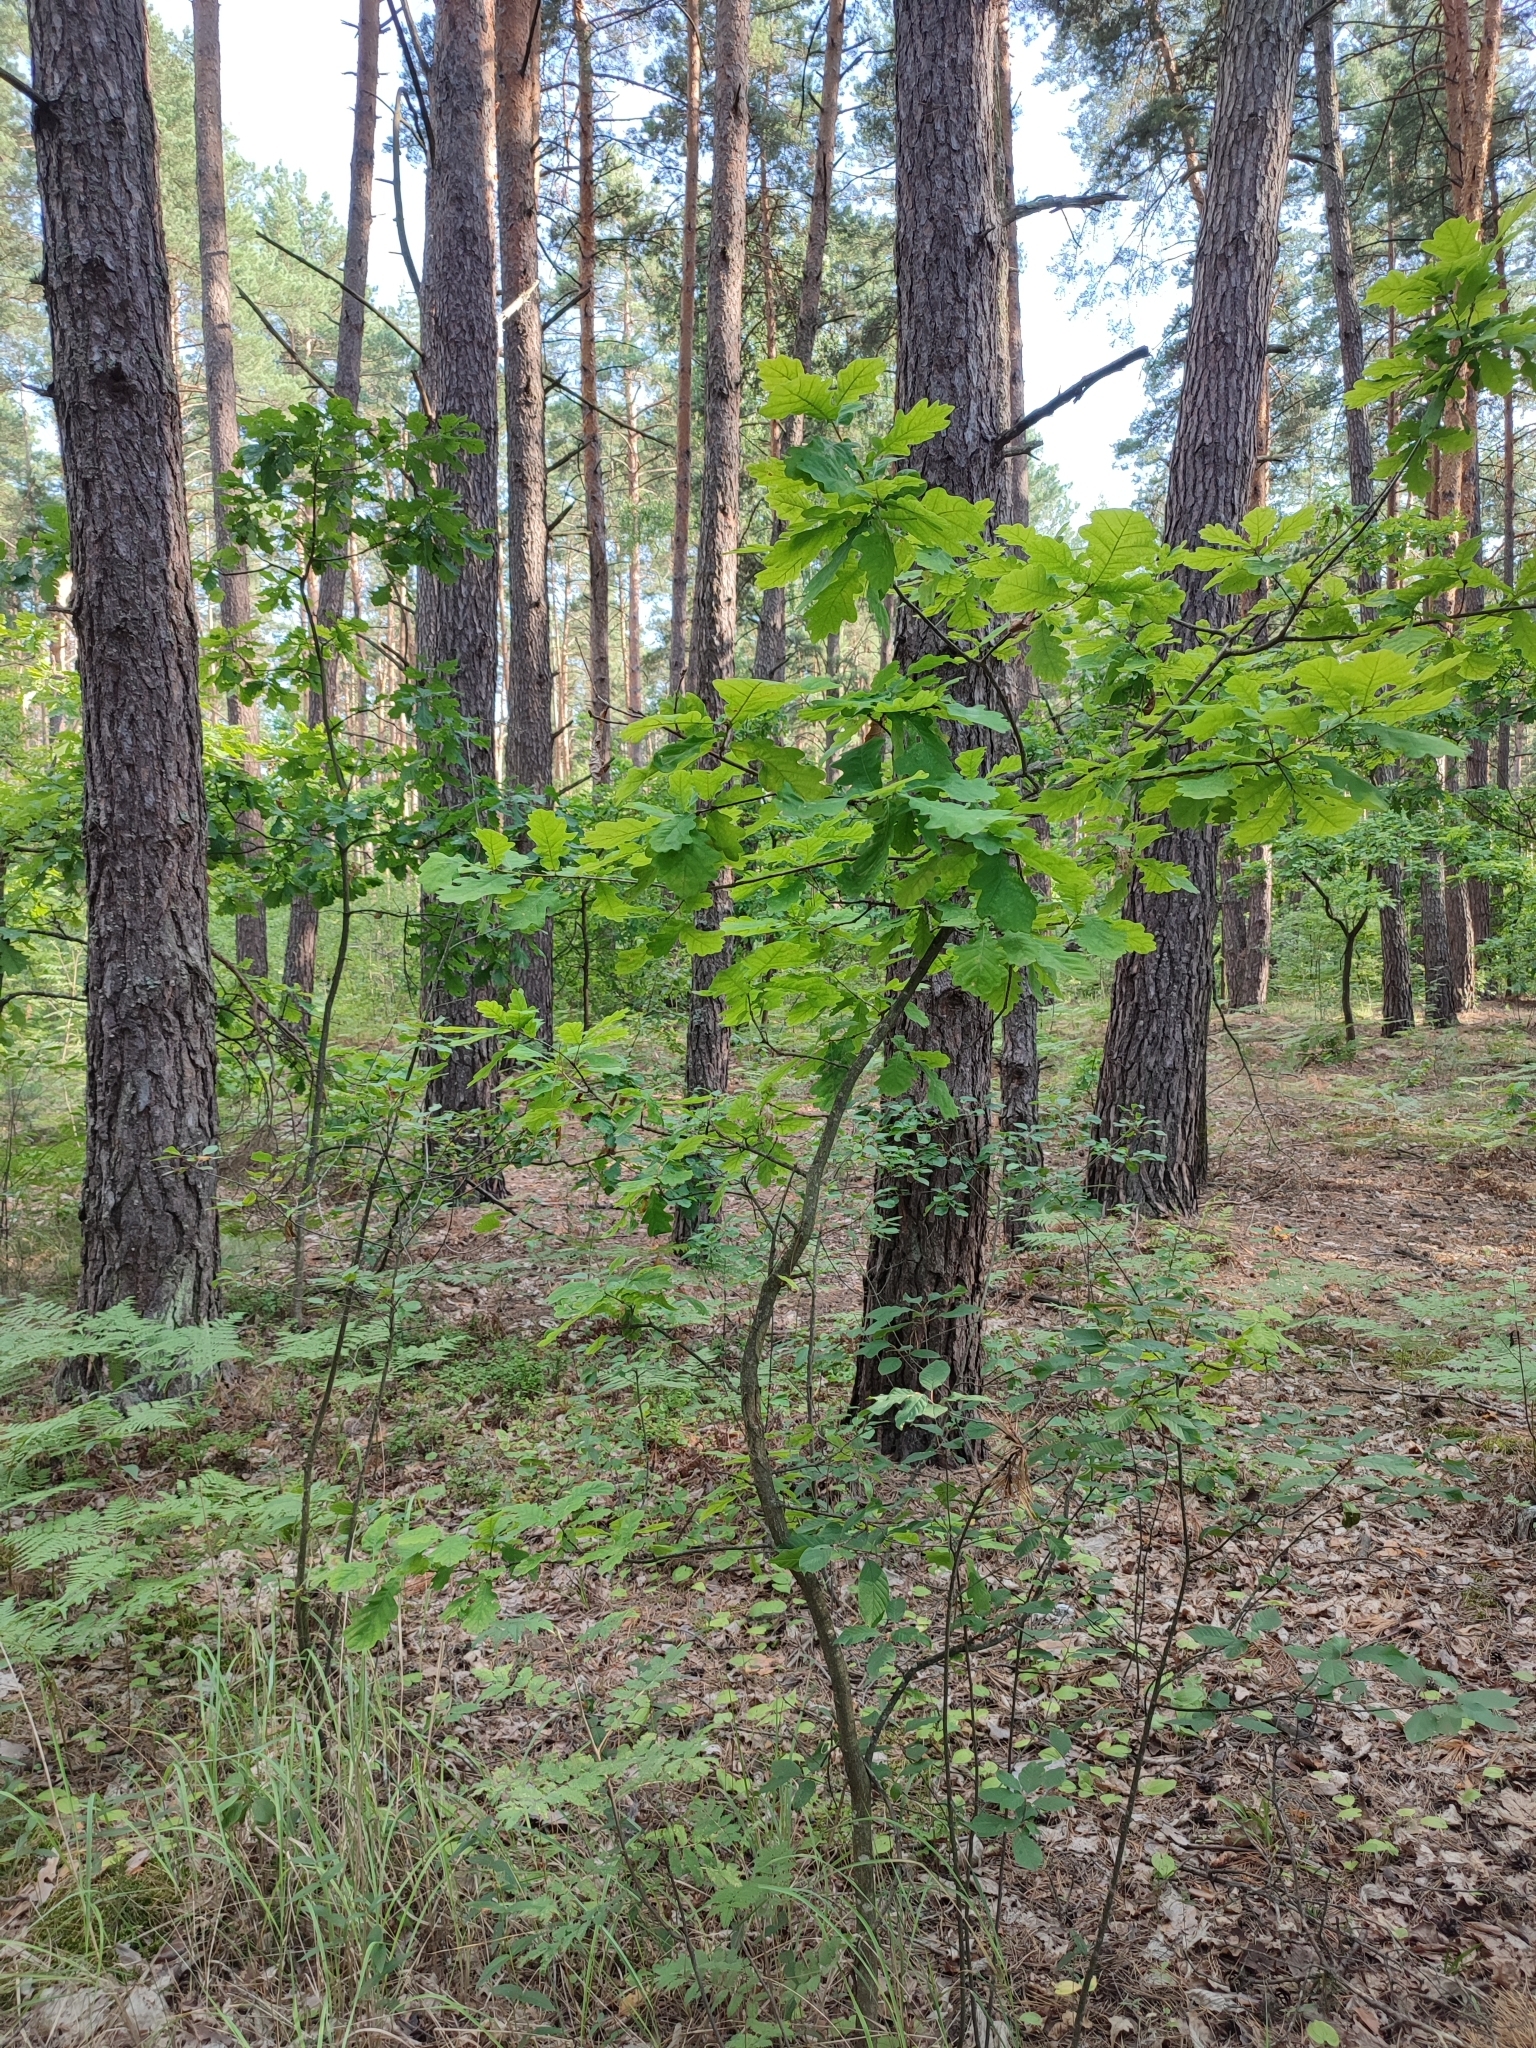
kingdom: Plantae
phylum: Tracheophyta
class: Magnoliopsida
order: Fagales
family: Fagaceae
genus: Quercus
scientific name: Quercus robur
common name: Pedunculate oak
